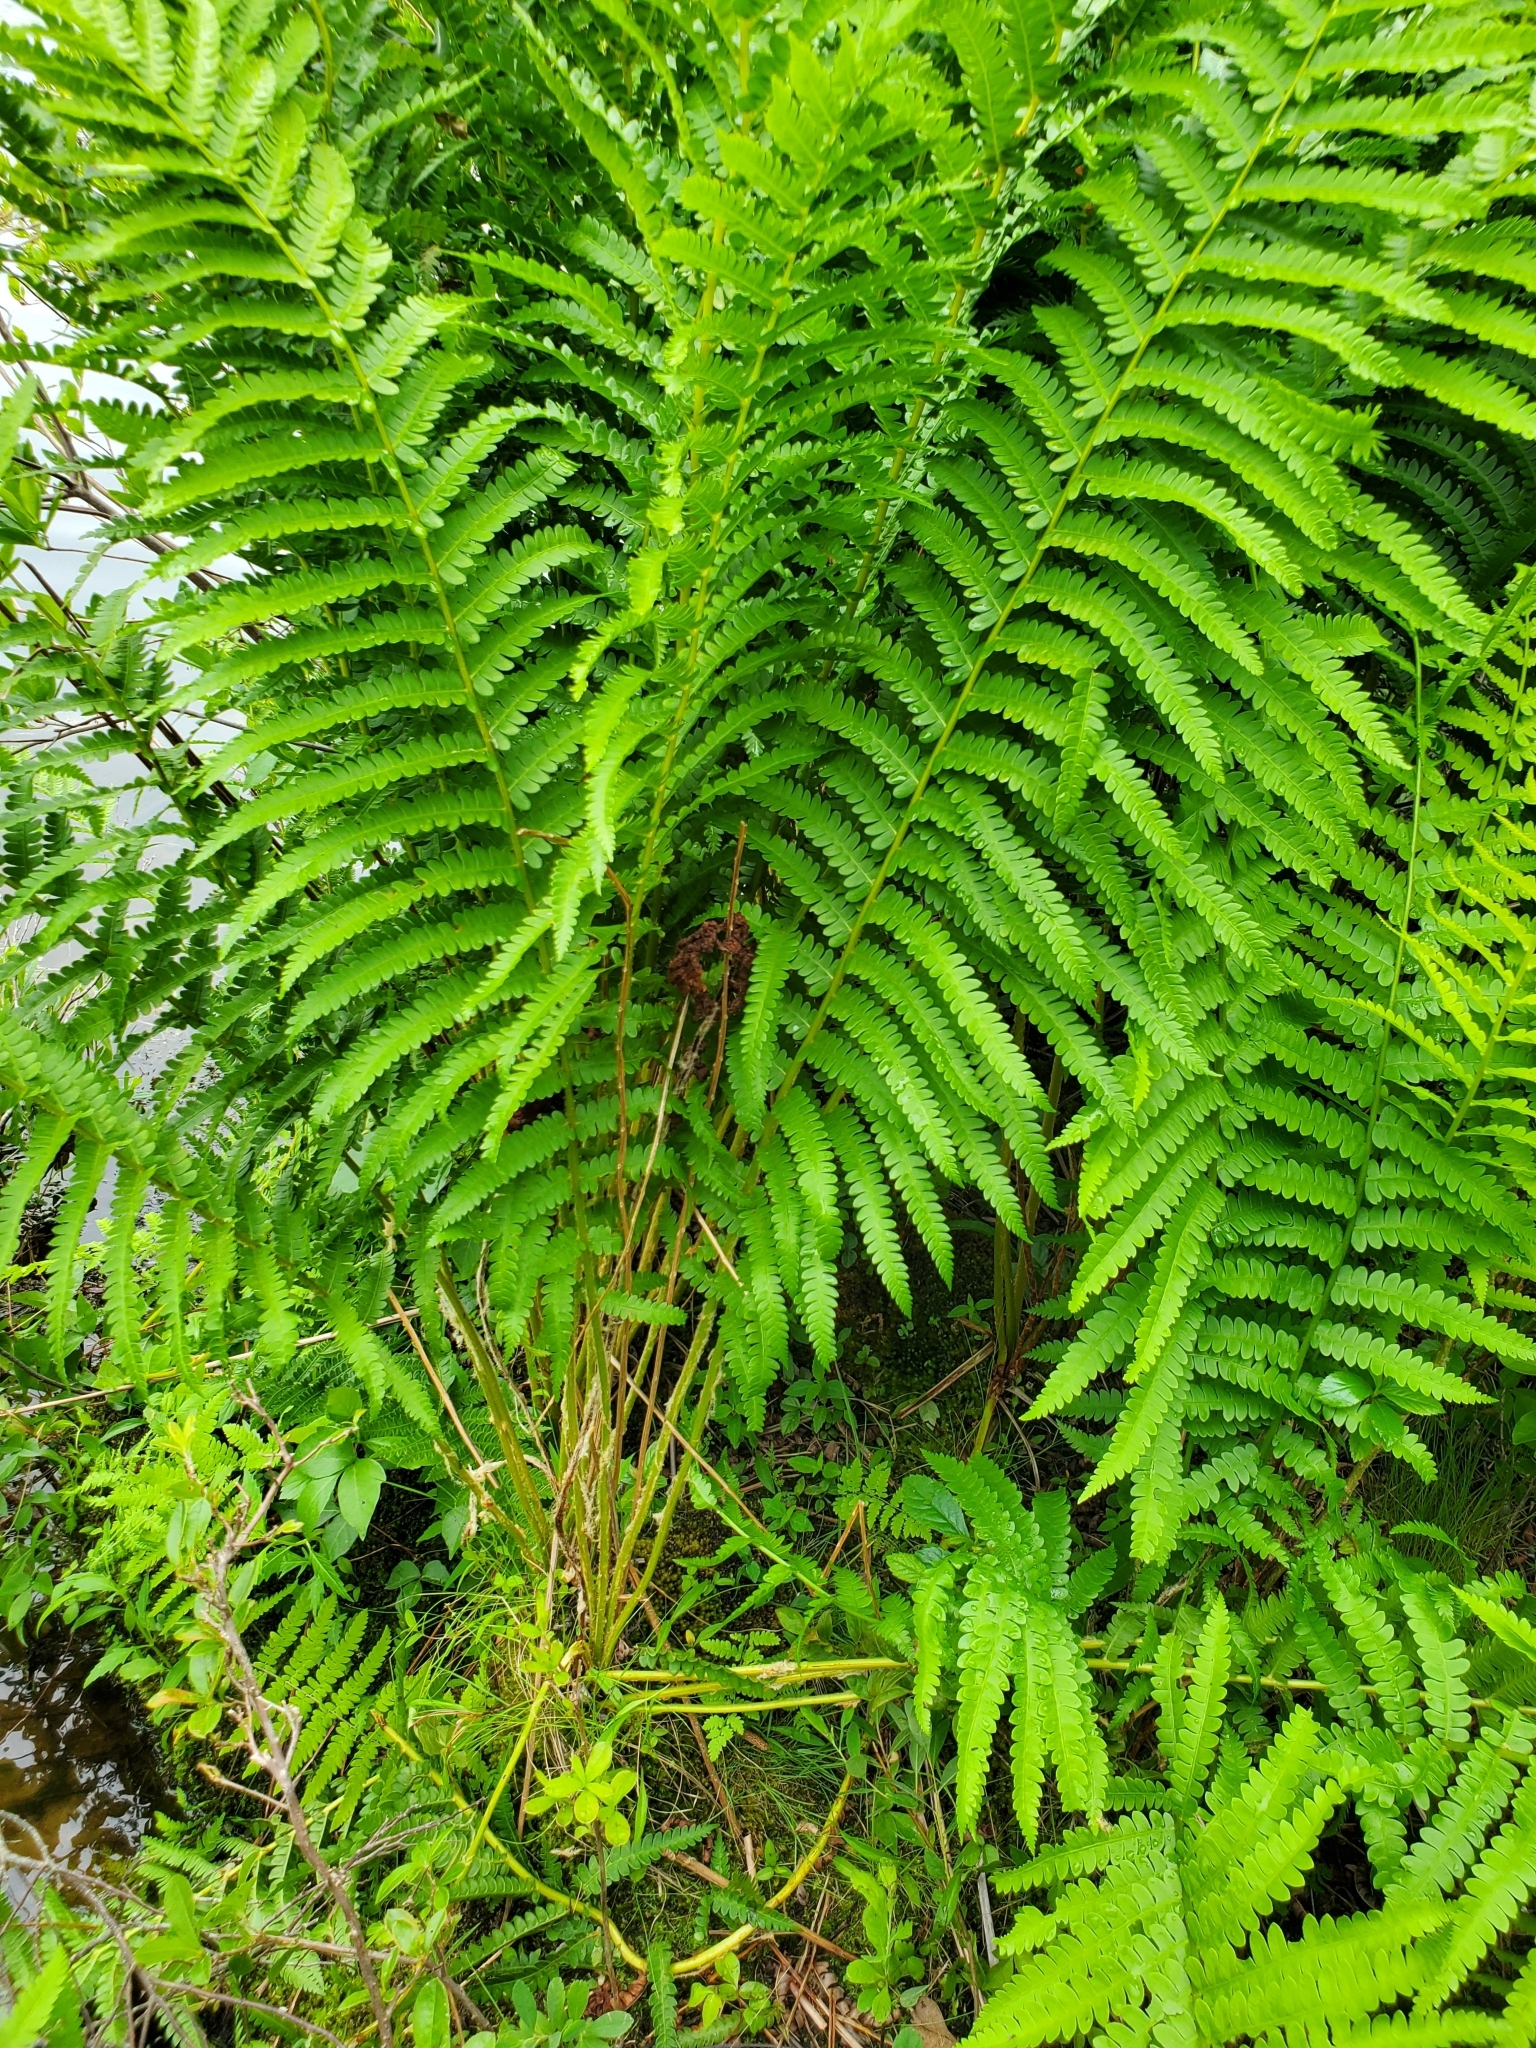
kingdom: Plantae
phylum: Tracheophyta
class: Polypodiopsida
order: Osmundales
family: Osmundaceae
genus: Osmundastrum
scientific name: Osmundastrum cinnamomeum
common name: Cinnamon fern
